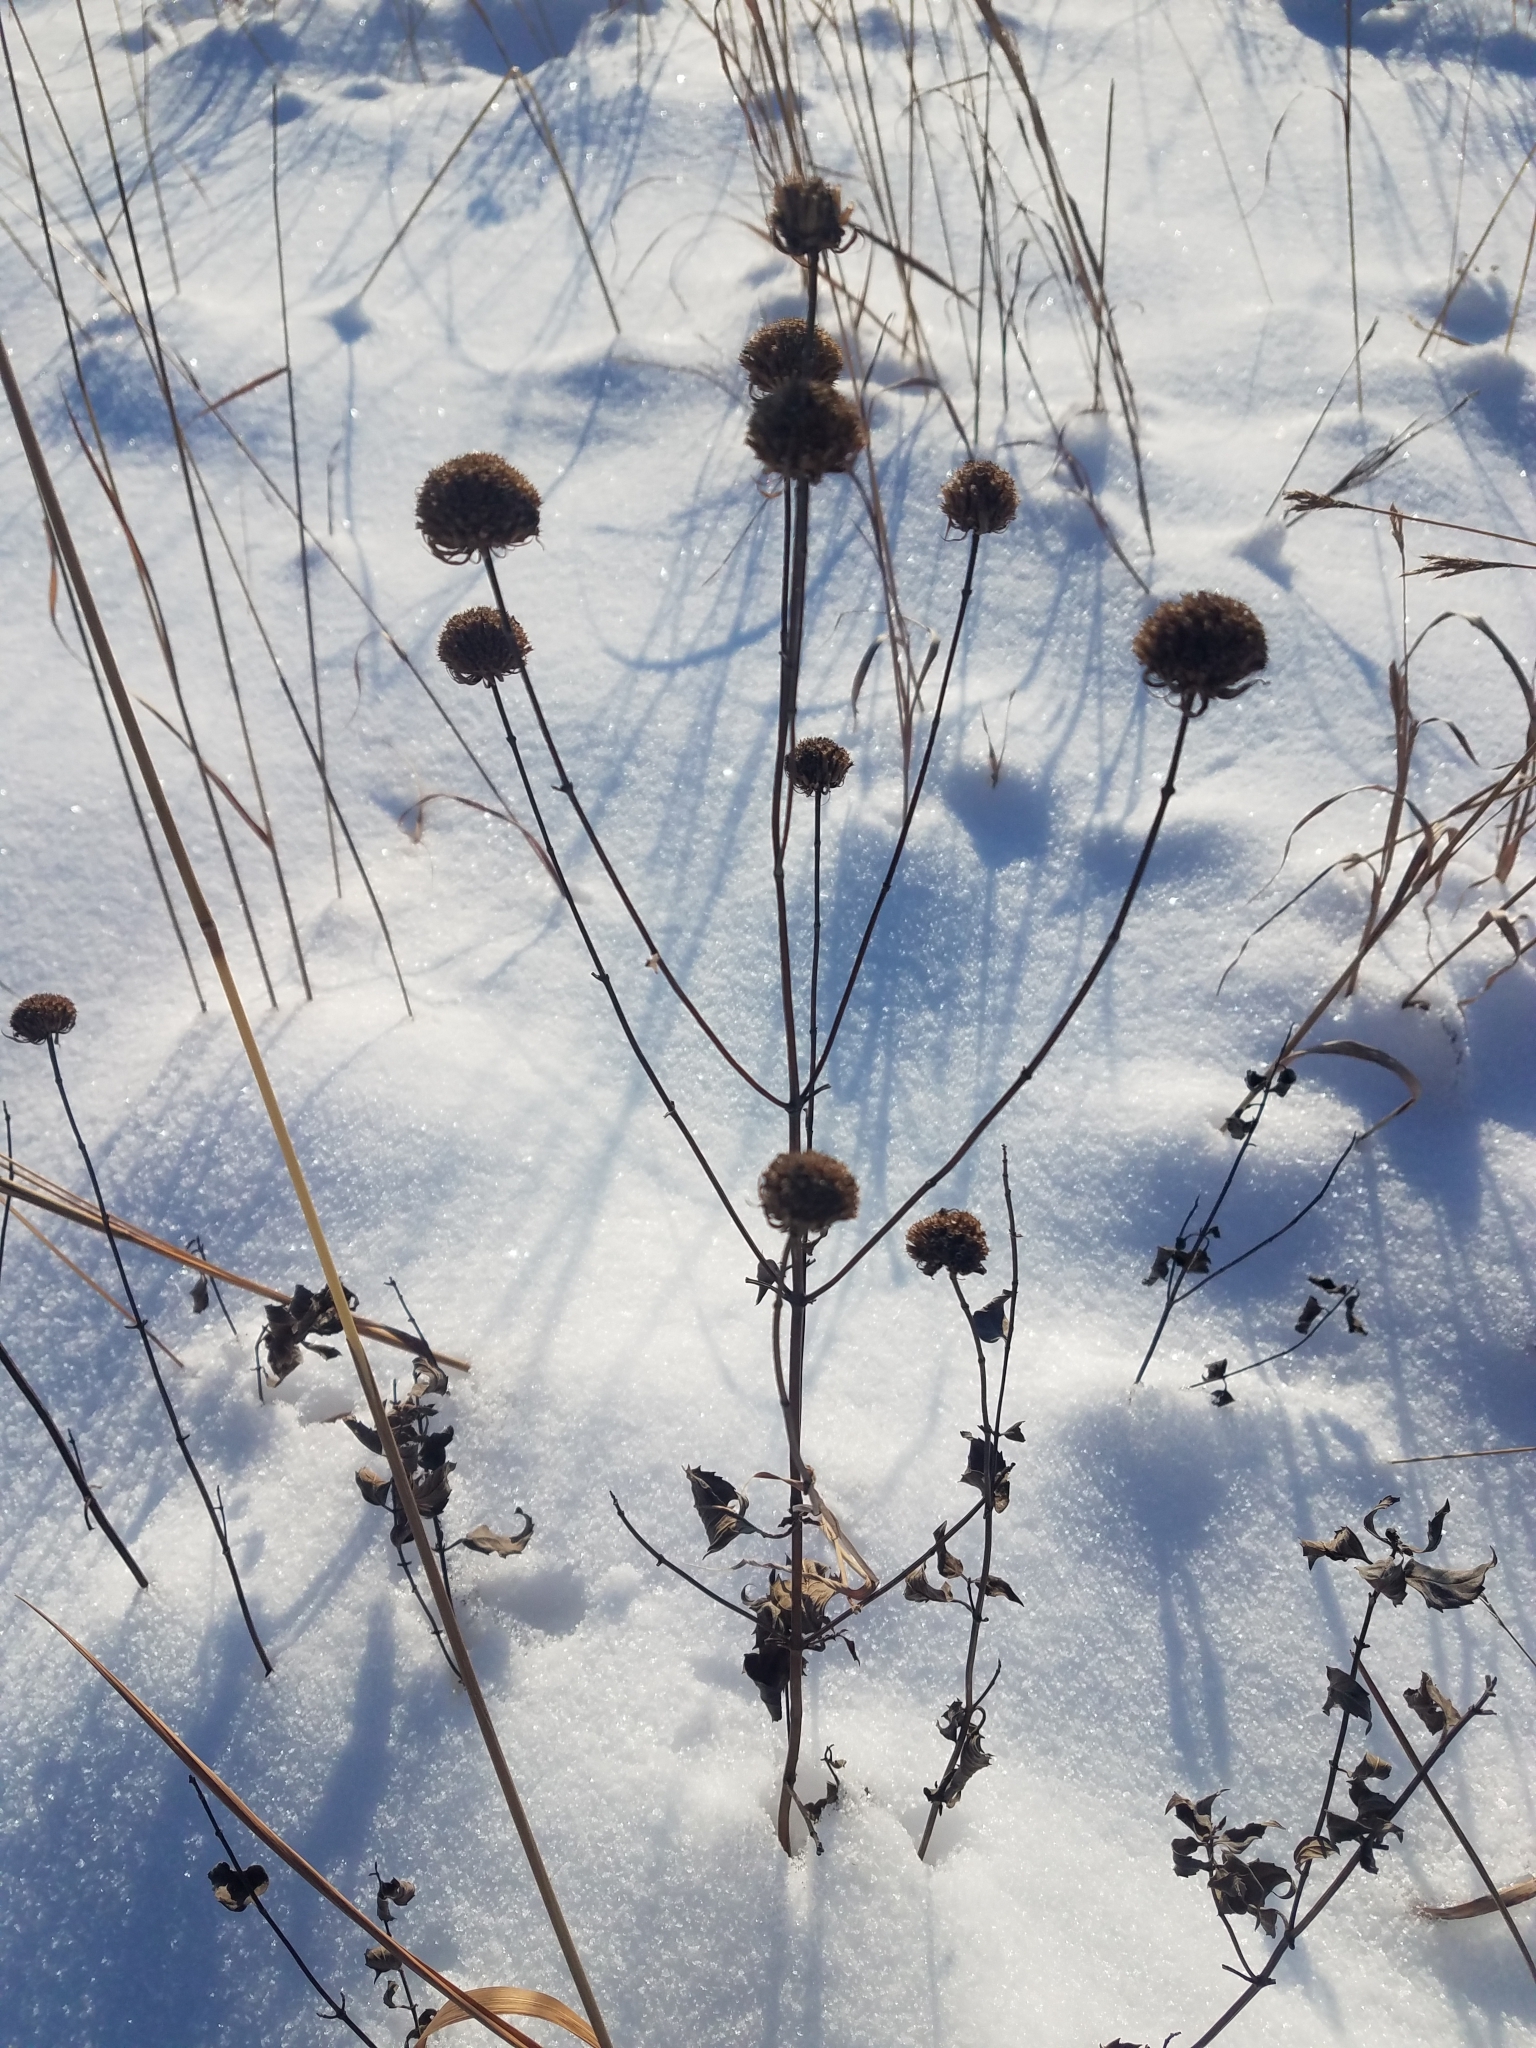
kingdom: Plantae
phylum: Tracheophyta
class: Magnoliopsida
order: Lamiales
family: Lamiaceae
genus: Monarda
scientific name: Monarda fistulosa
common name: Purple beebalm
